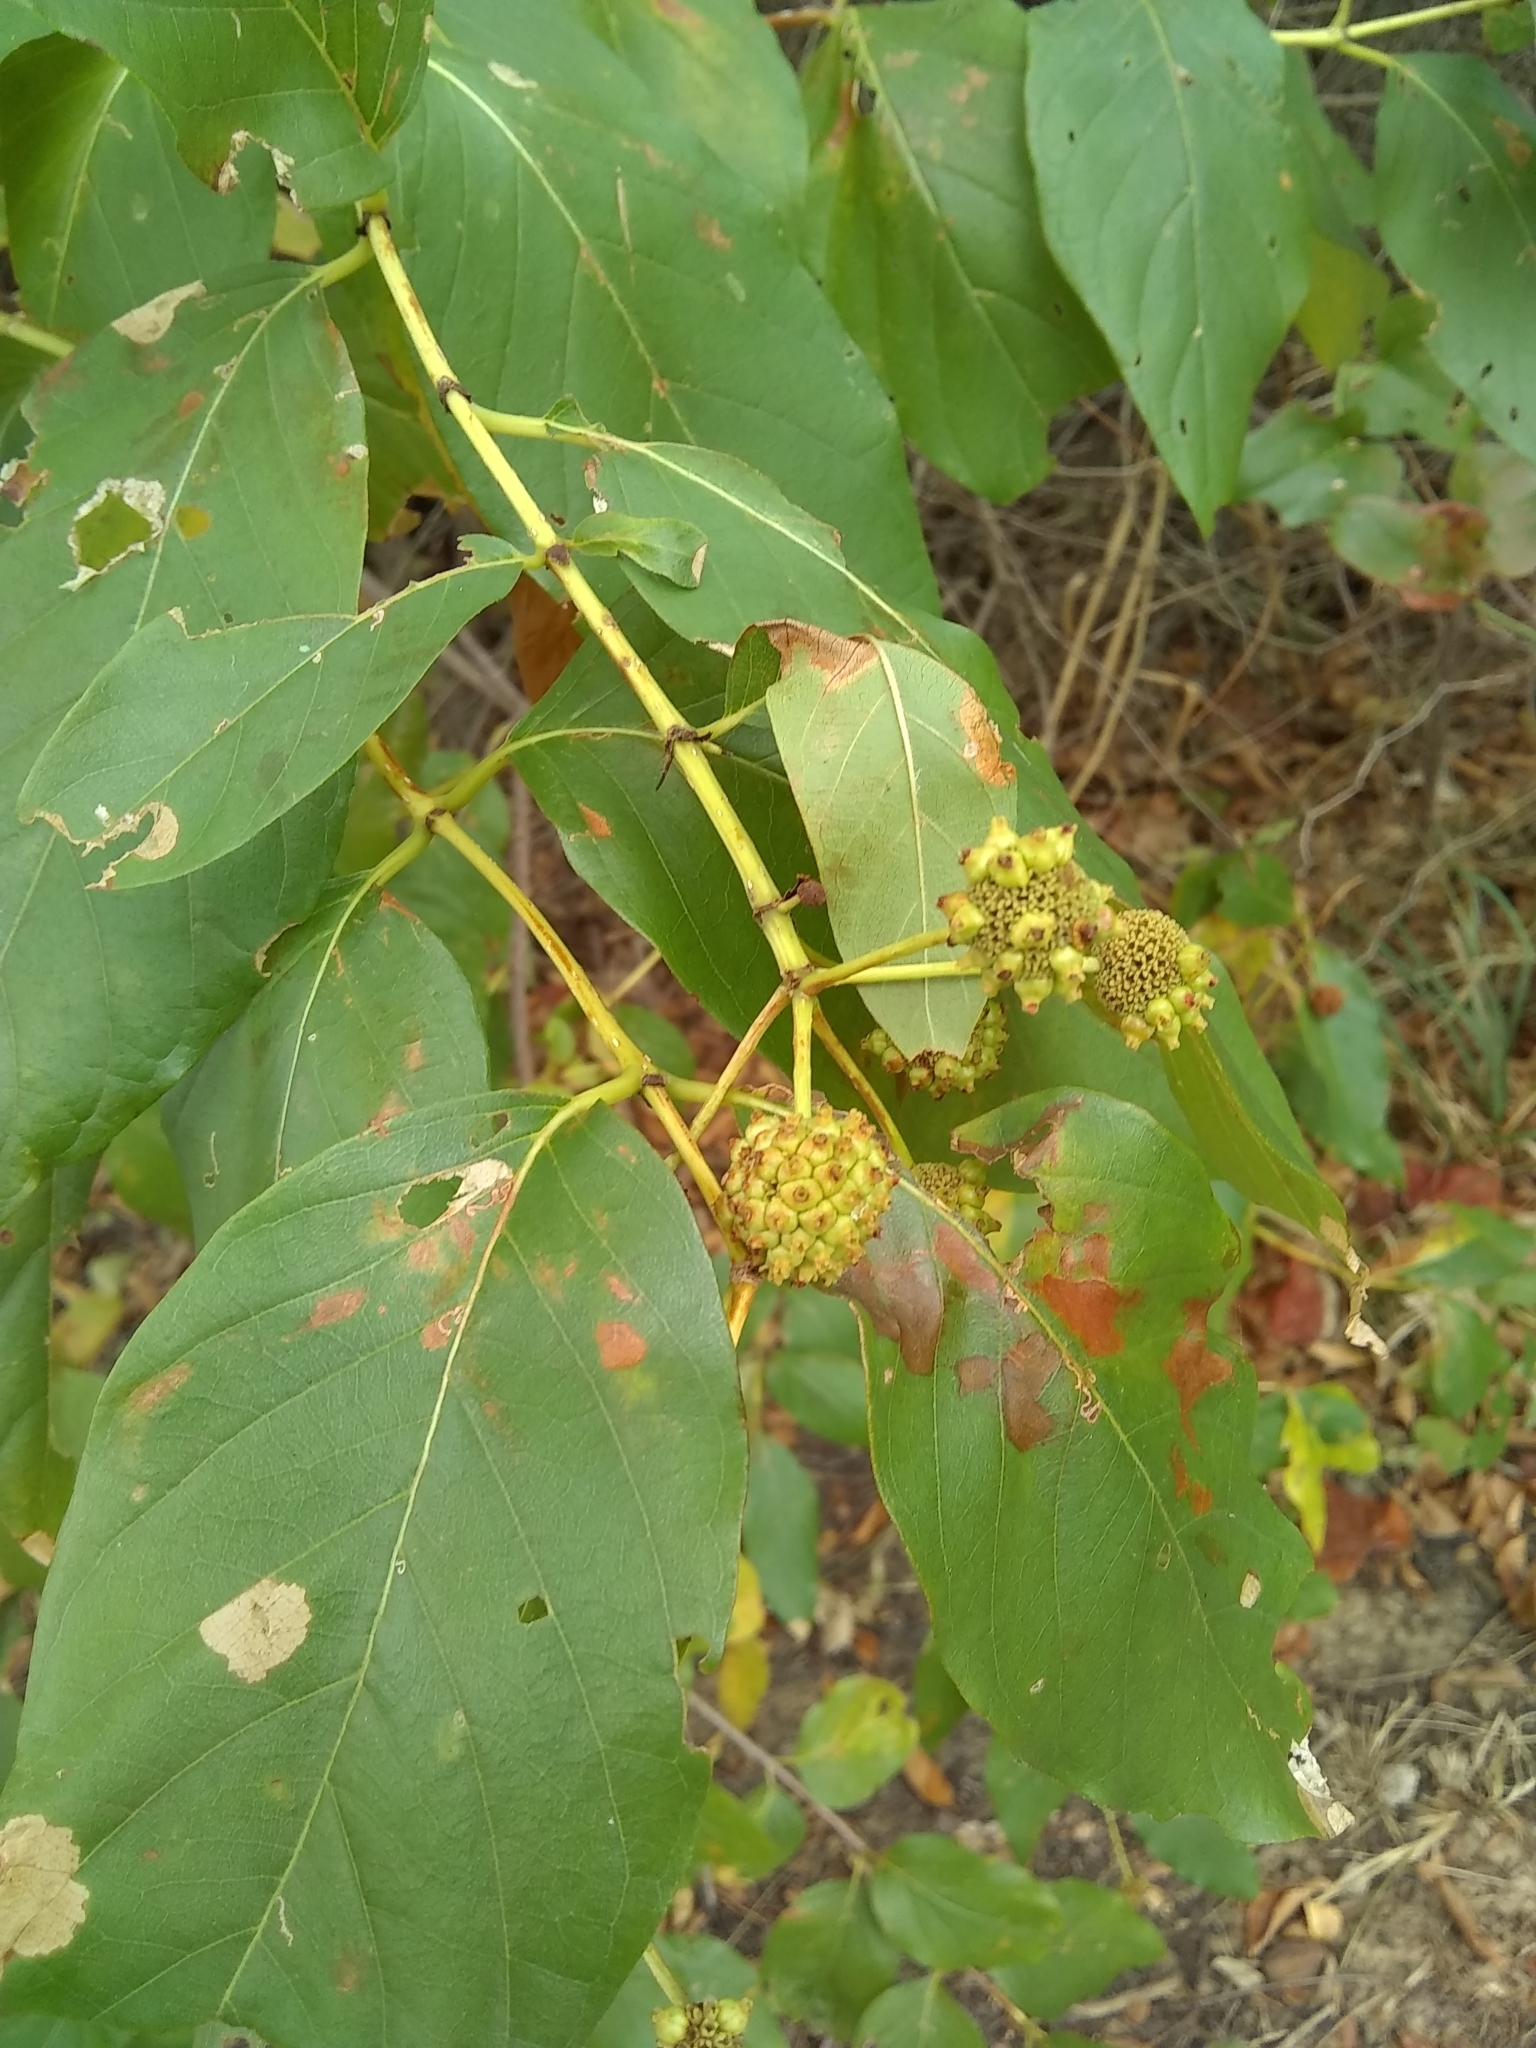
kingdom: Plantae
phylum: Tracheophyta
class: Magnoliopsida
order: Gentianales
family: Rubiaceae
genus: Cephalanthus
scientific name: Cephalanthus occidentalis
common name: Button-willow
